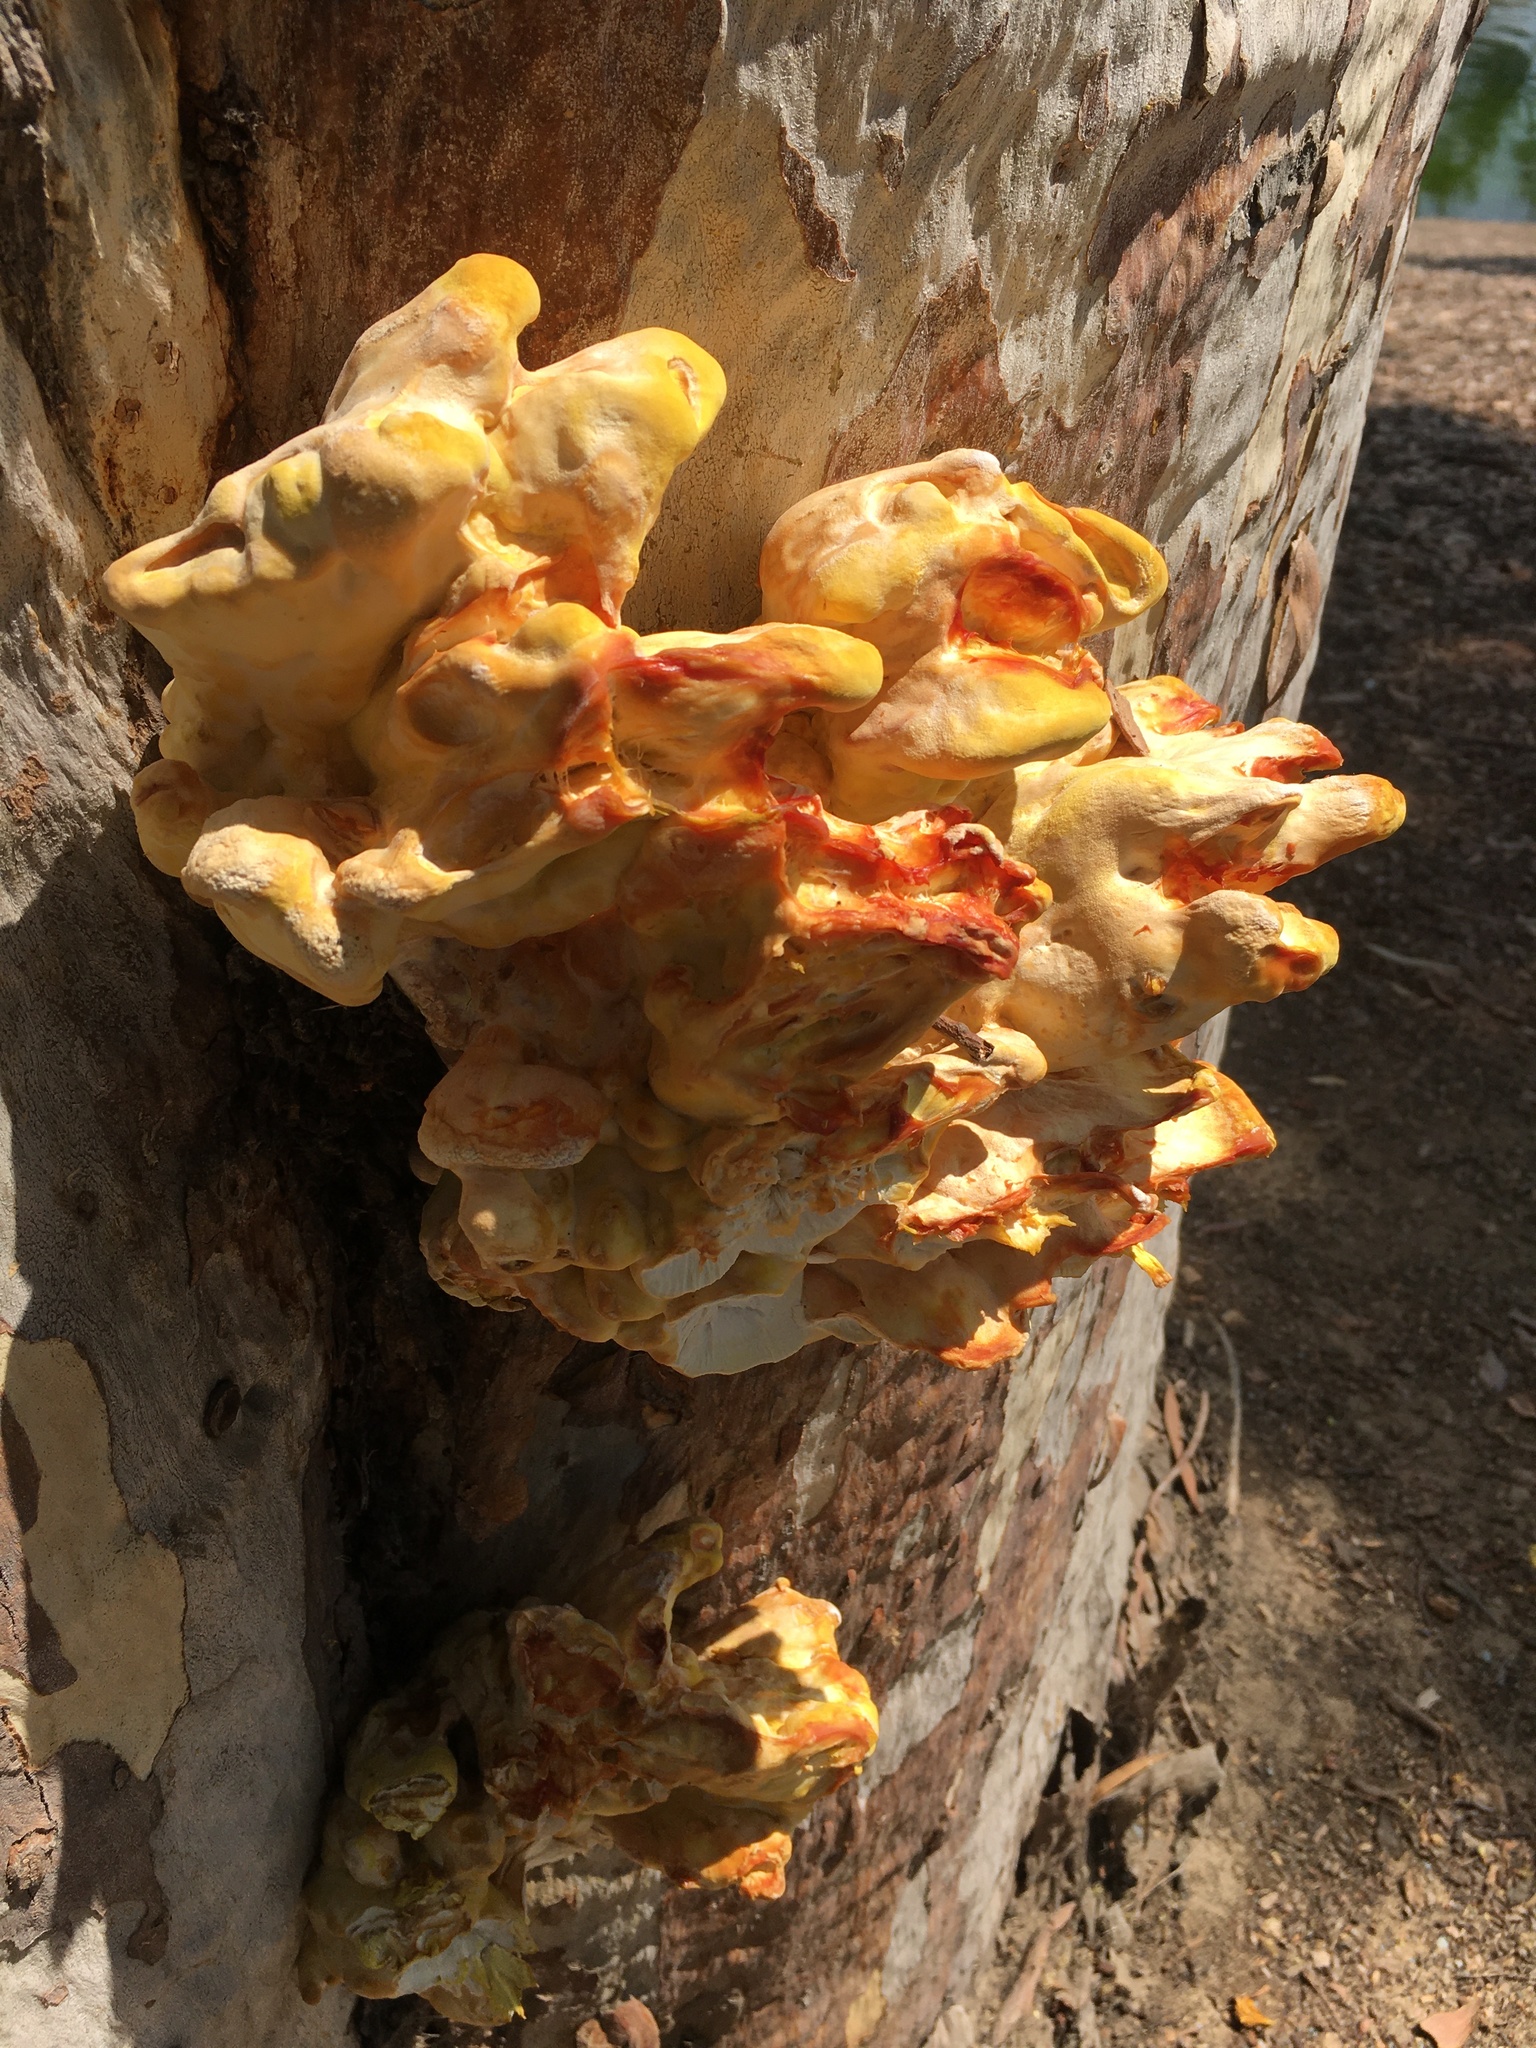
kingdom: Fungi
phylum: Basidiomycota
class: Agaricomycetes
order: Polyporales
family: Laetiporaceae
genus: Laetiporus
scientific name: Laetiporus gilbertsonii
